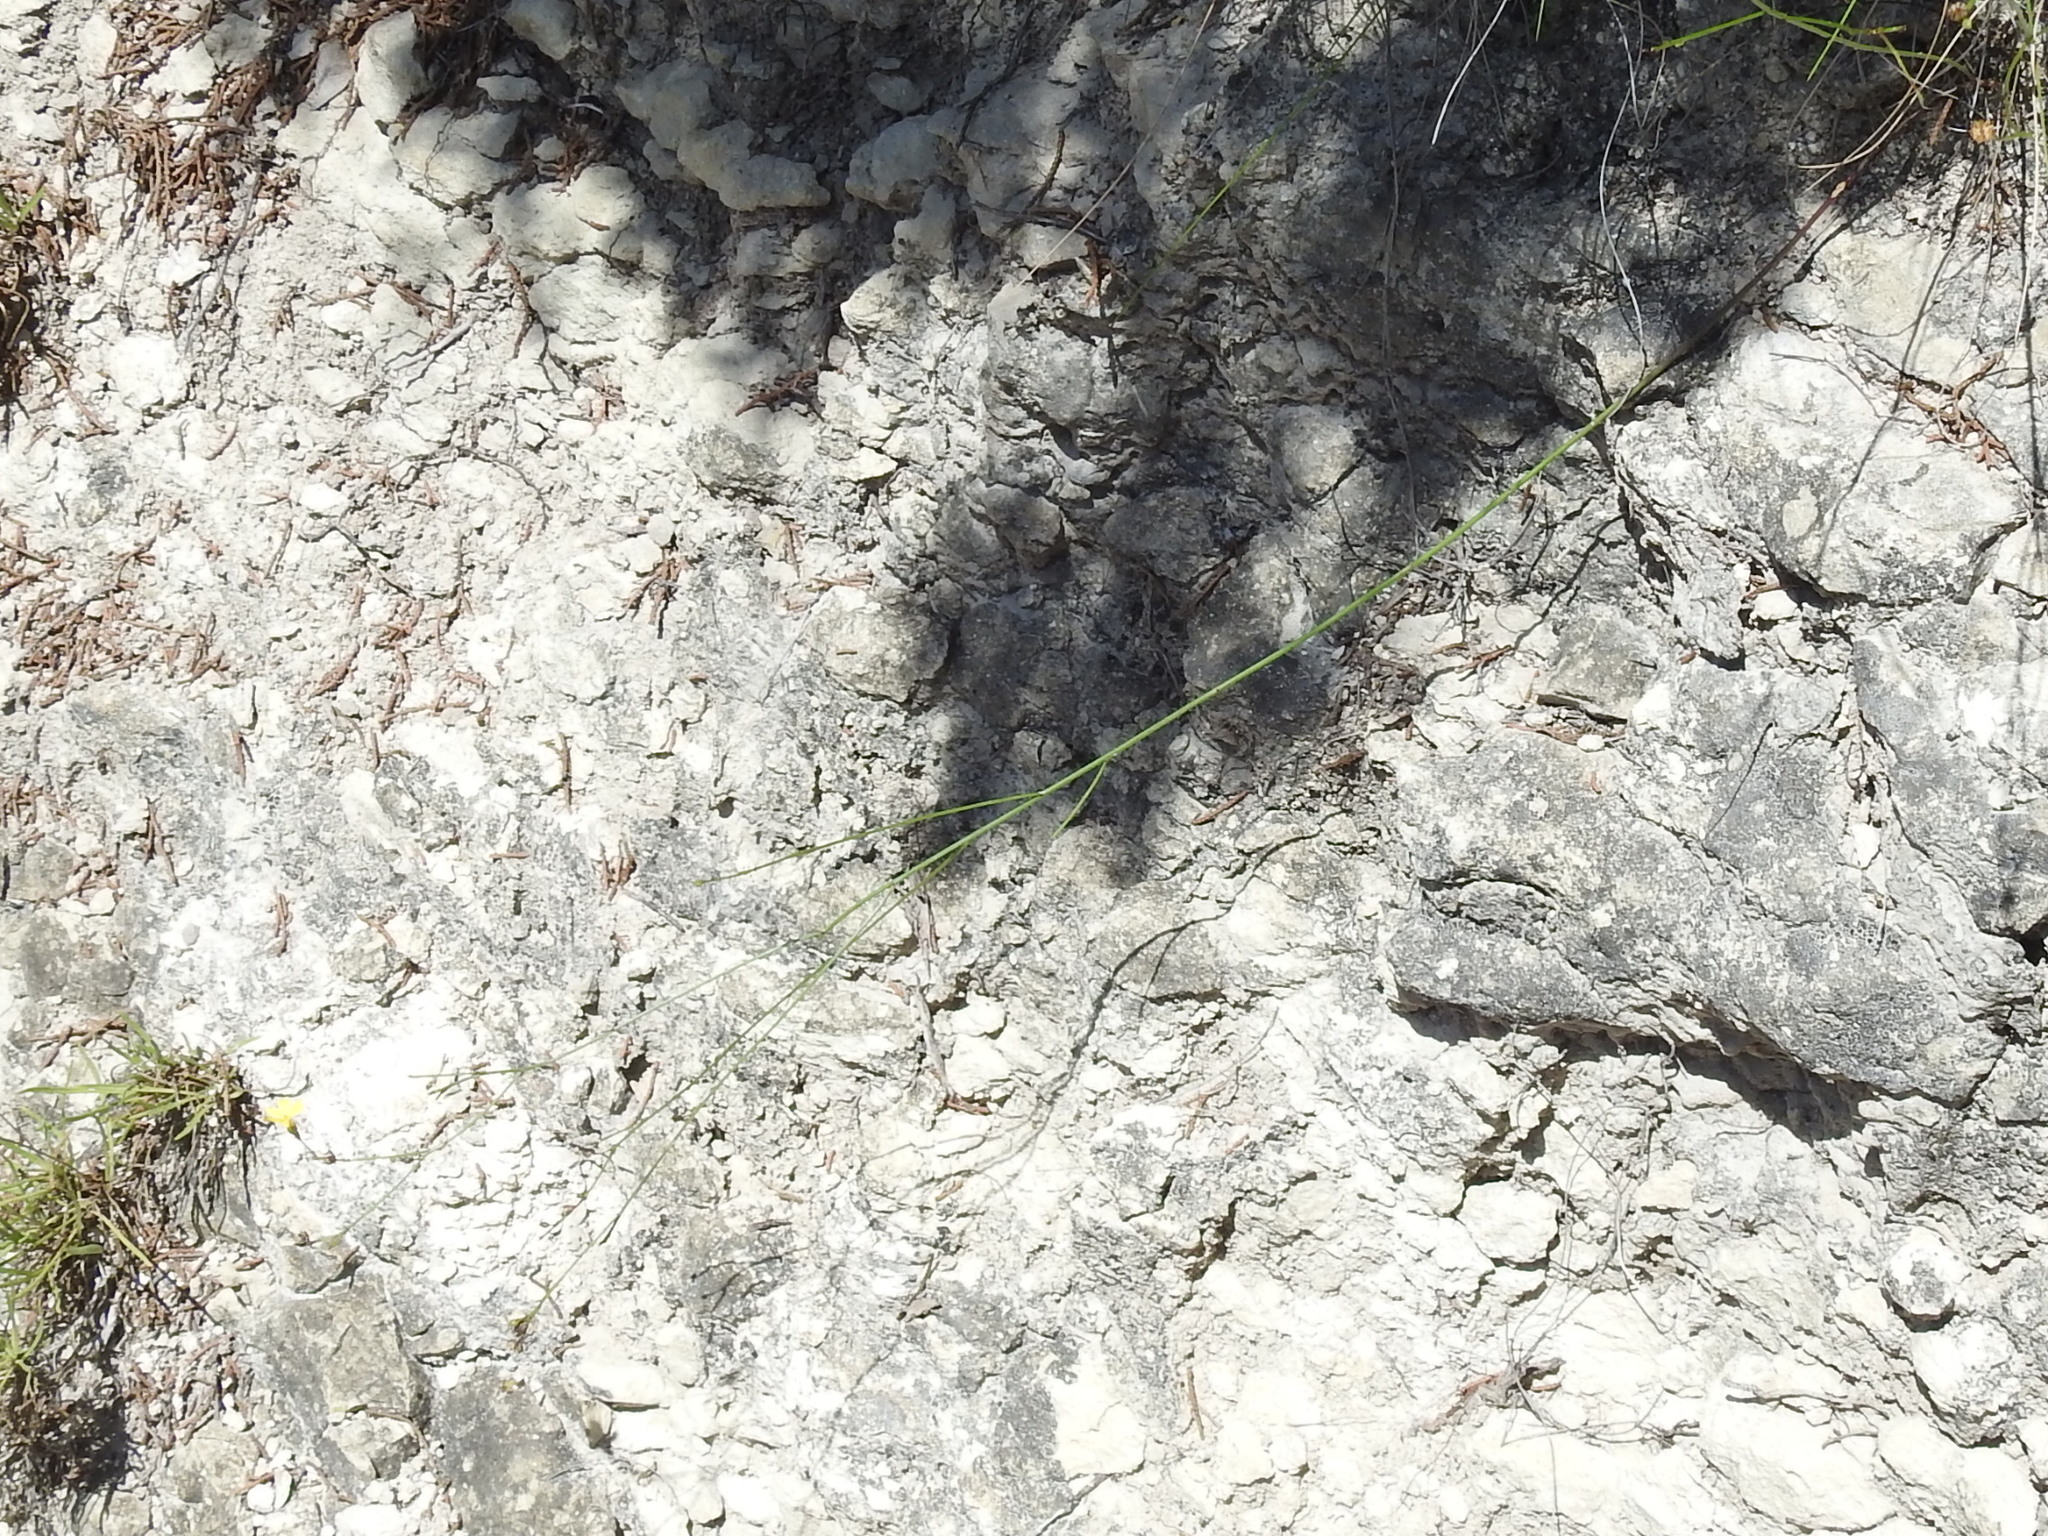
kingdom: Plantae
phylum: Tracheophyta
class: Magnoliopsida
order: Malpighiales
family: Linaceae
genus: Linum
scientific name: Linum rupestre
